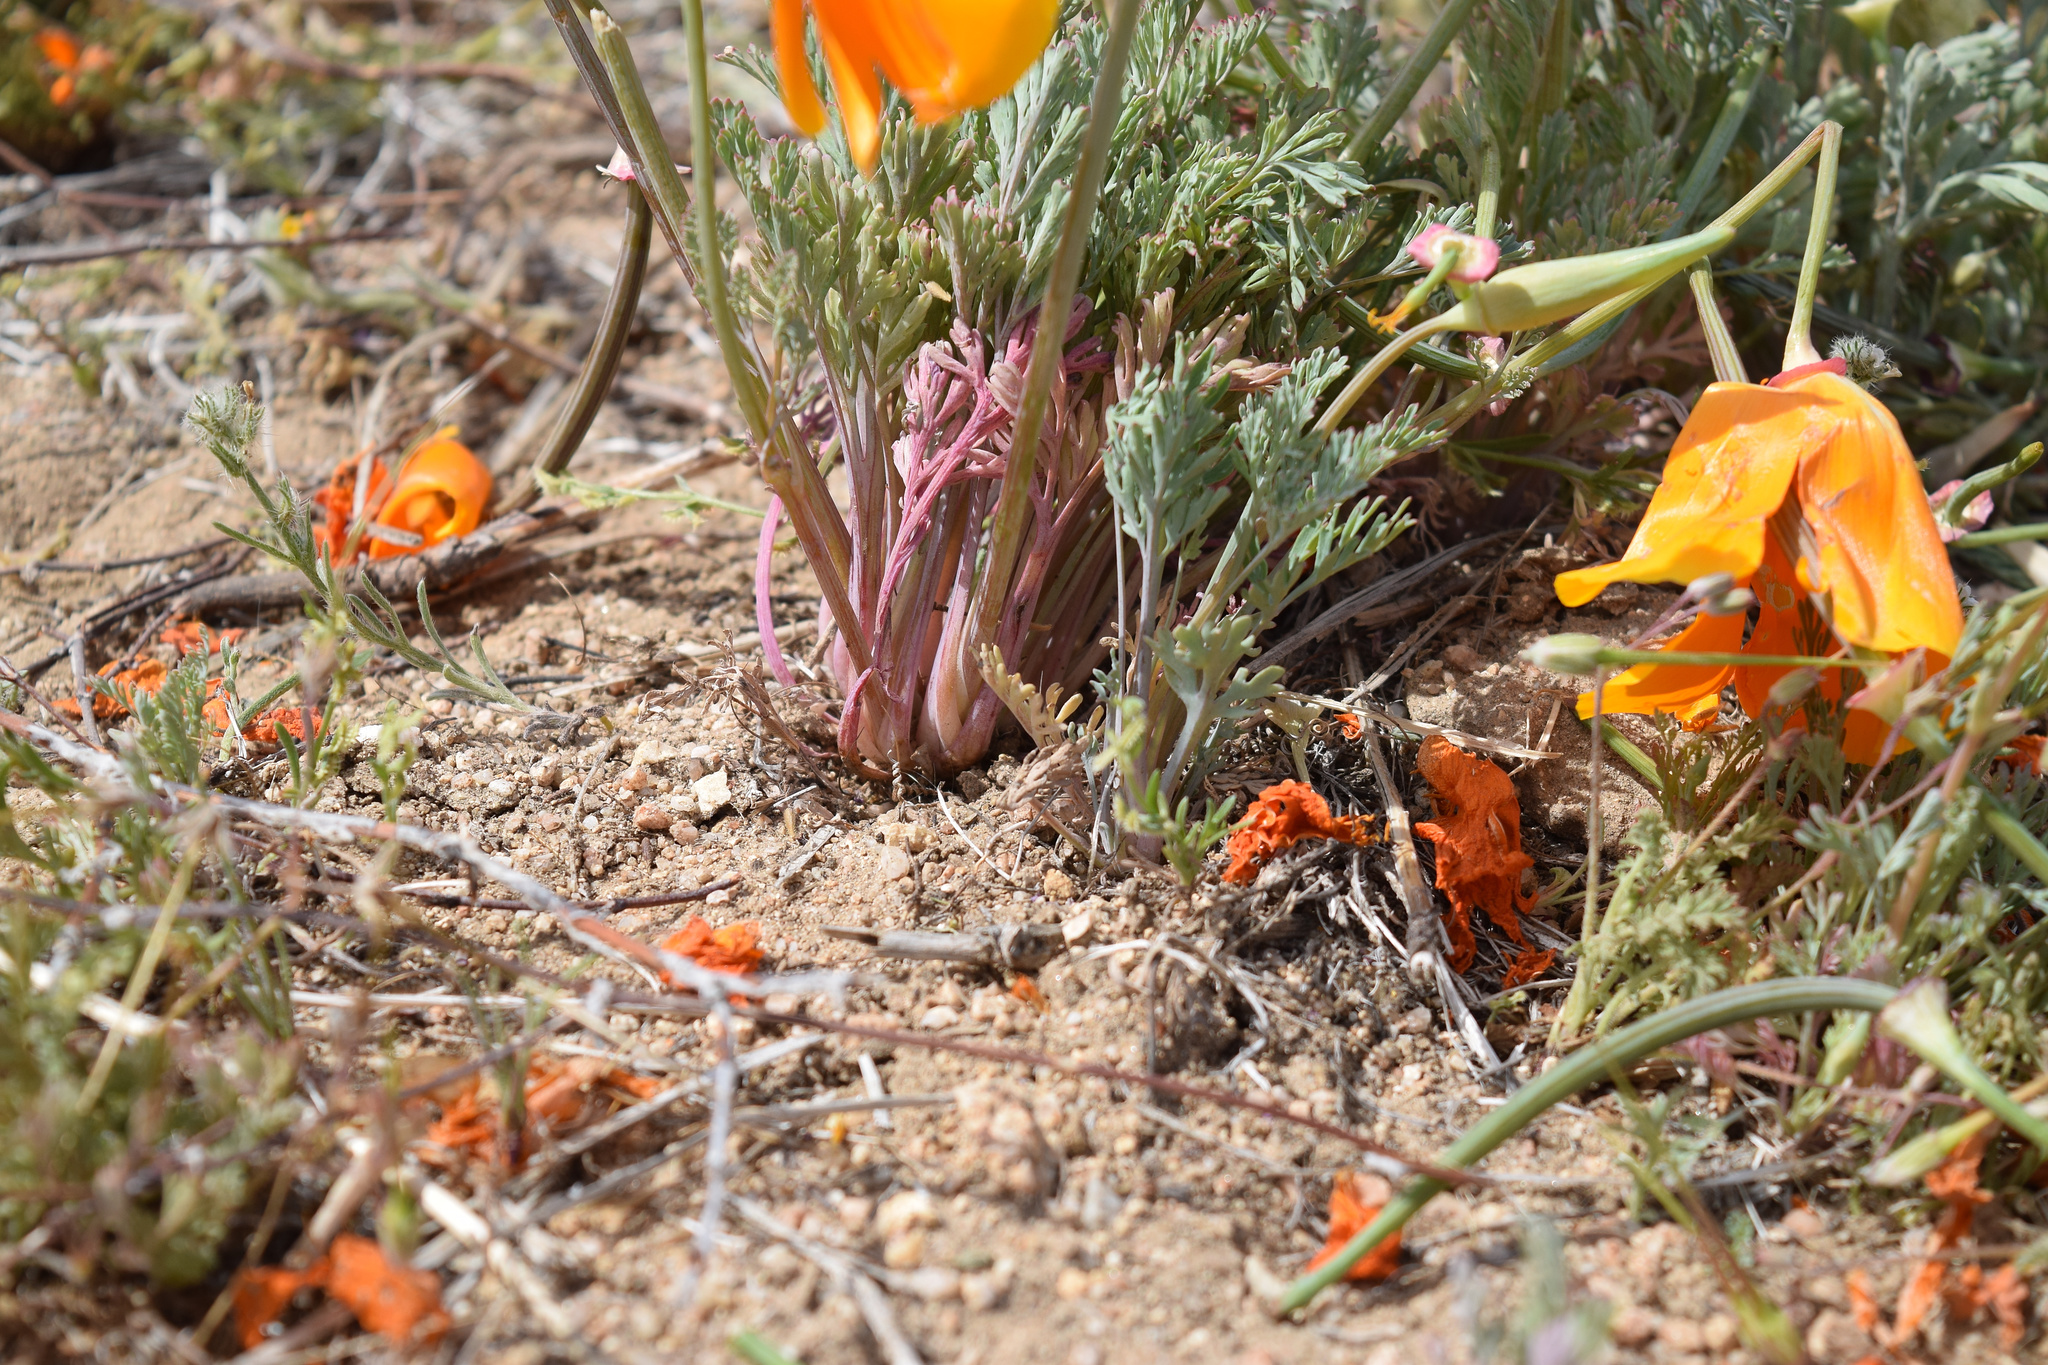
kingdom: Plantae
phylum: Tracheophyta
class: Magnoliopsida
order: Ranunculales
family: Papaveraceae
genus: Eschscholzia
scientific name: Eschscholzia californica
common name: California poppy
